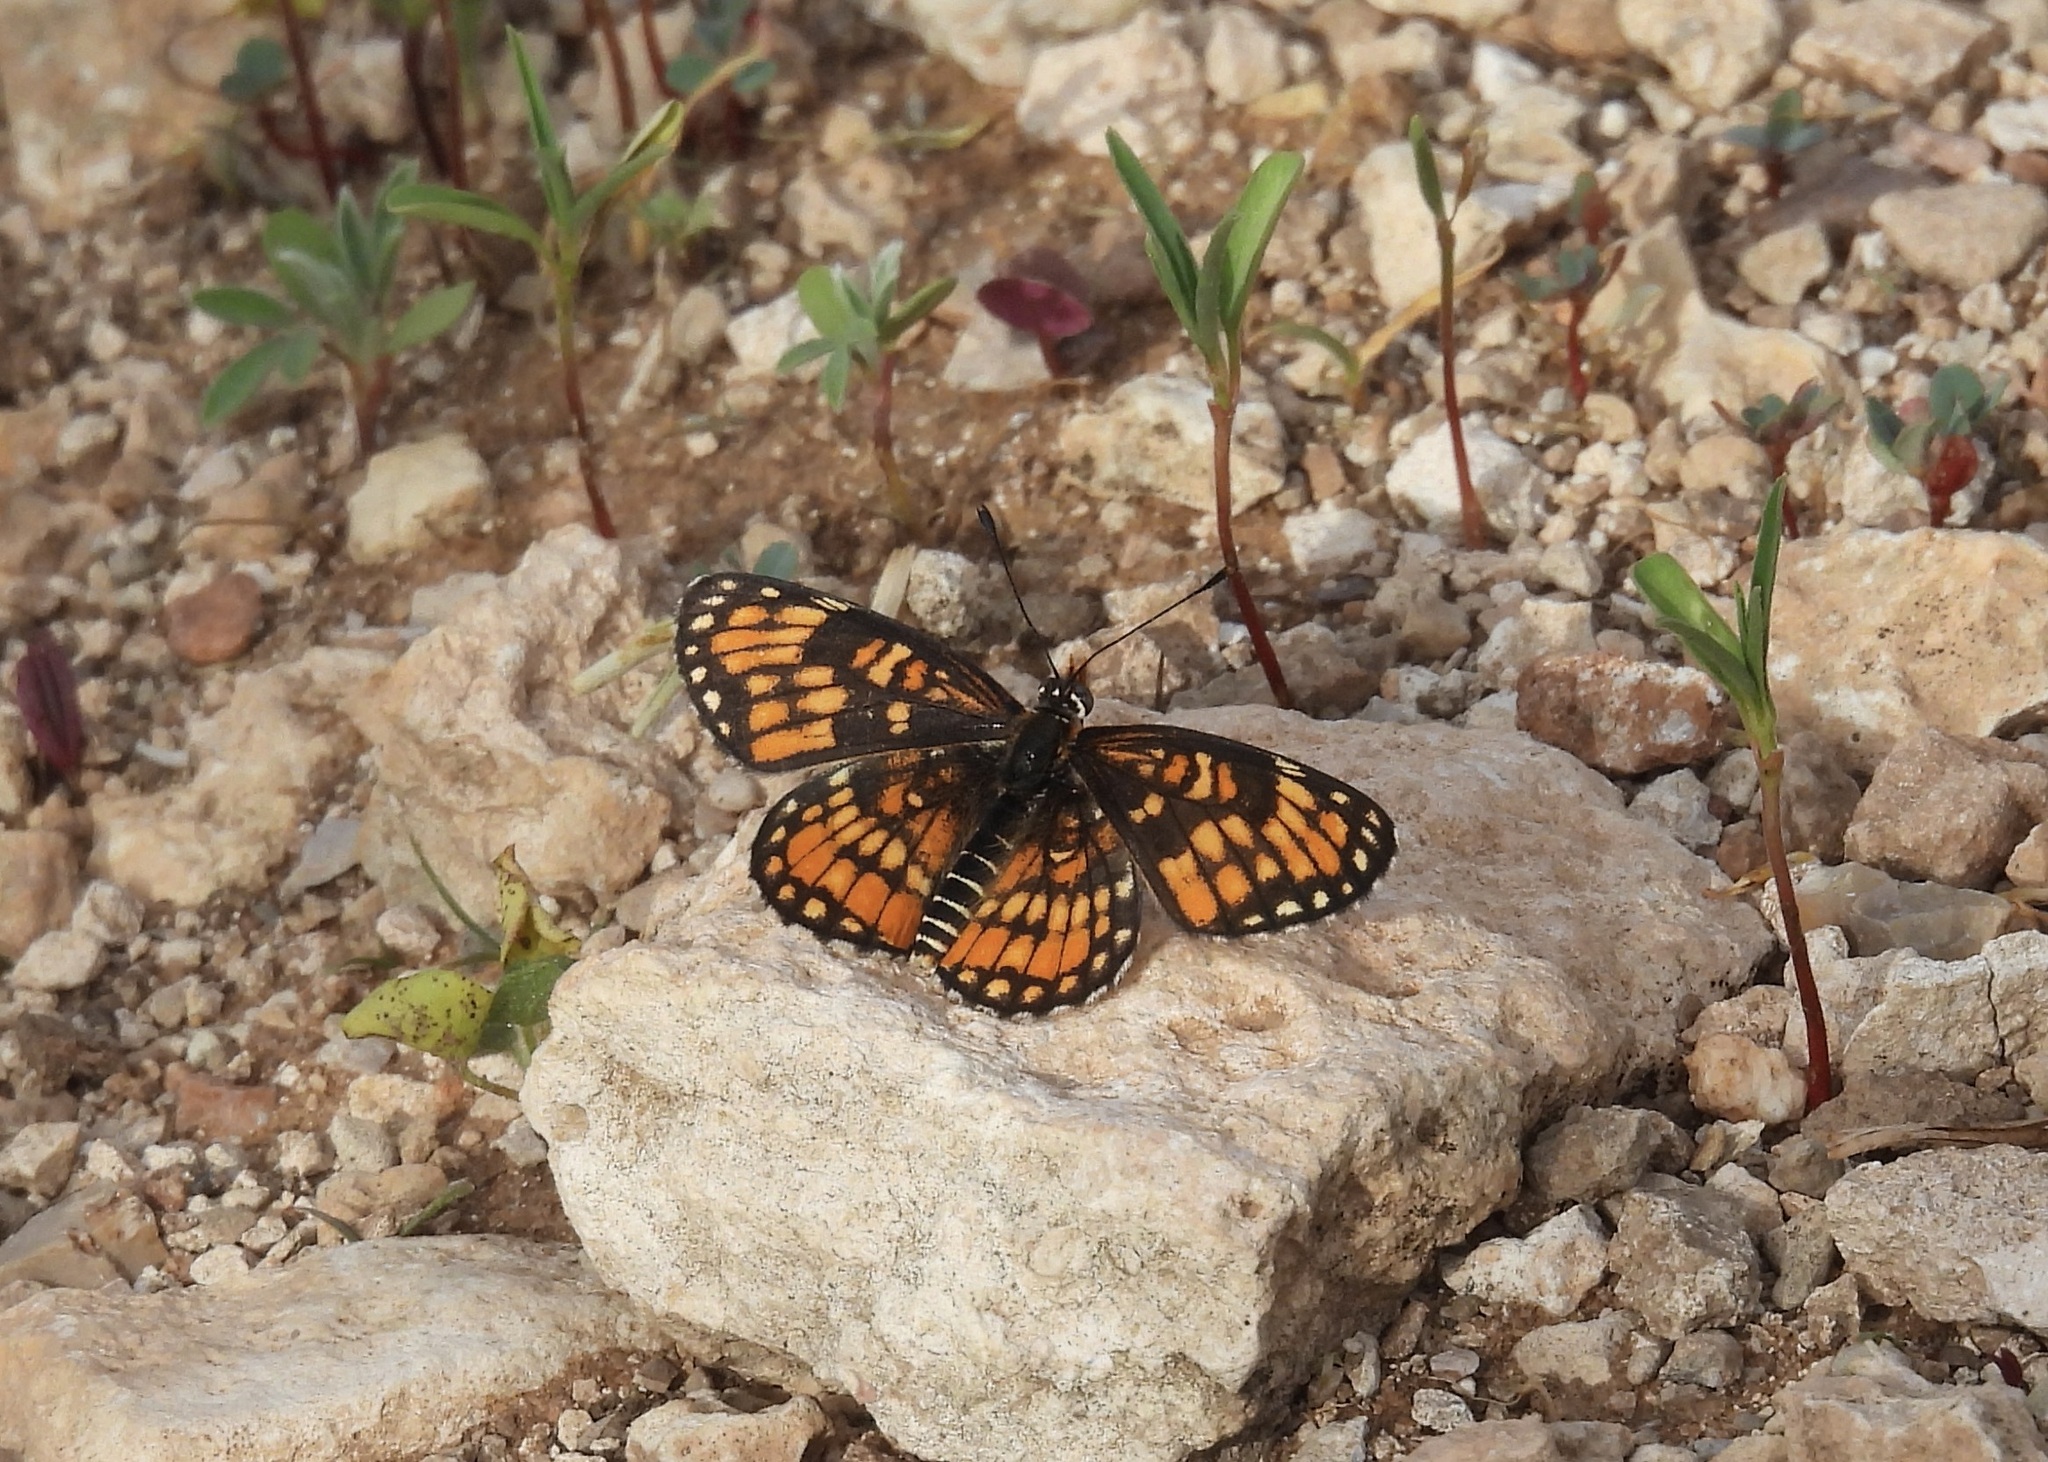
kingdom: Animalia
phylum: Arthropoda
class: Insecta
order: Lepidoptera
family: Nymphalidae
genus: Chlosyne
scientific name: Chlosyne definita
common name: Definite patch
